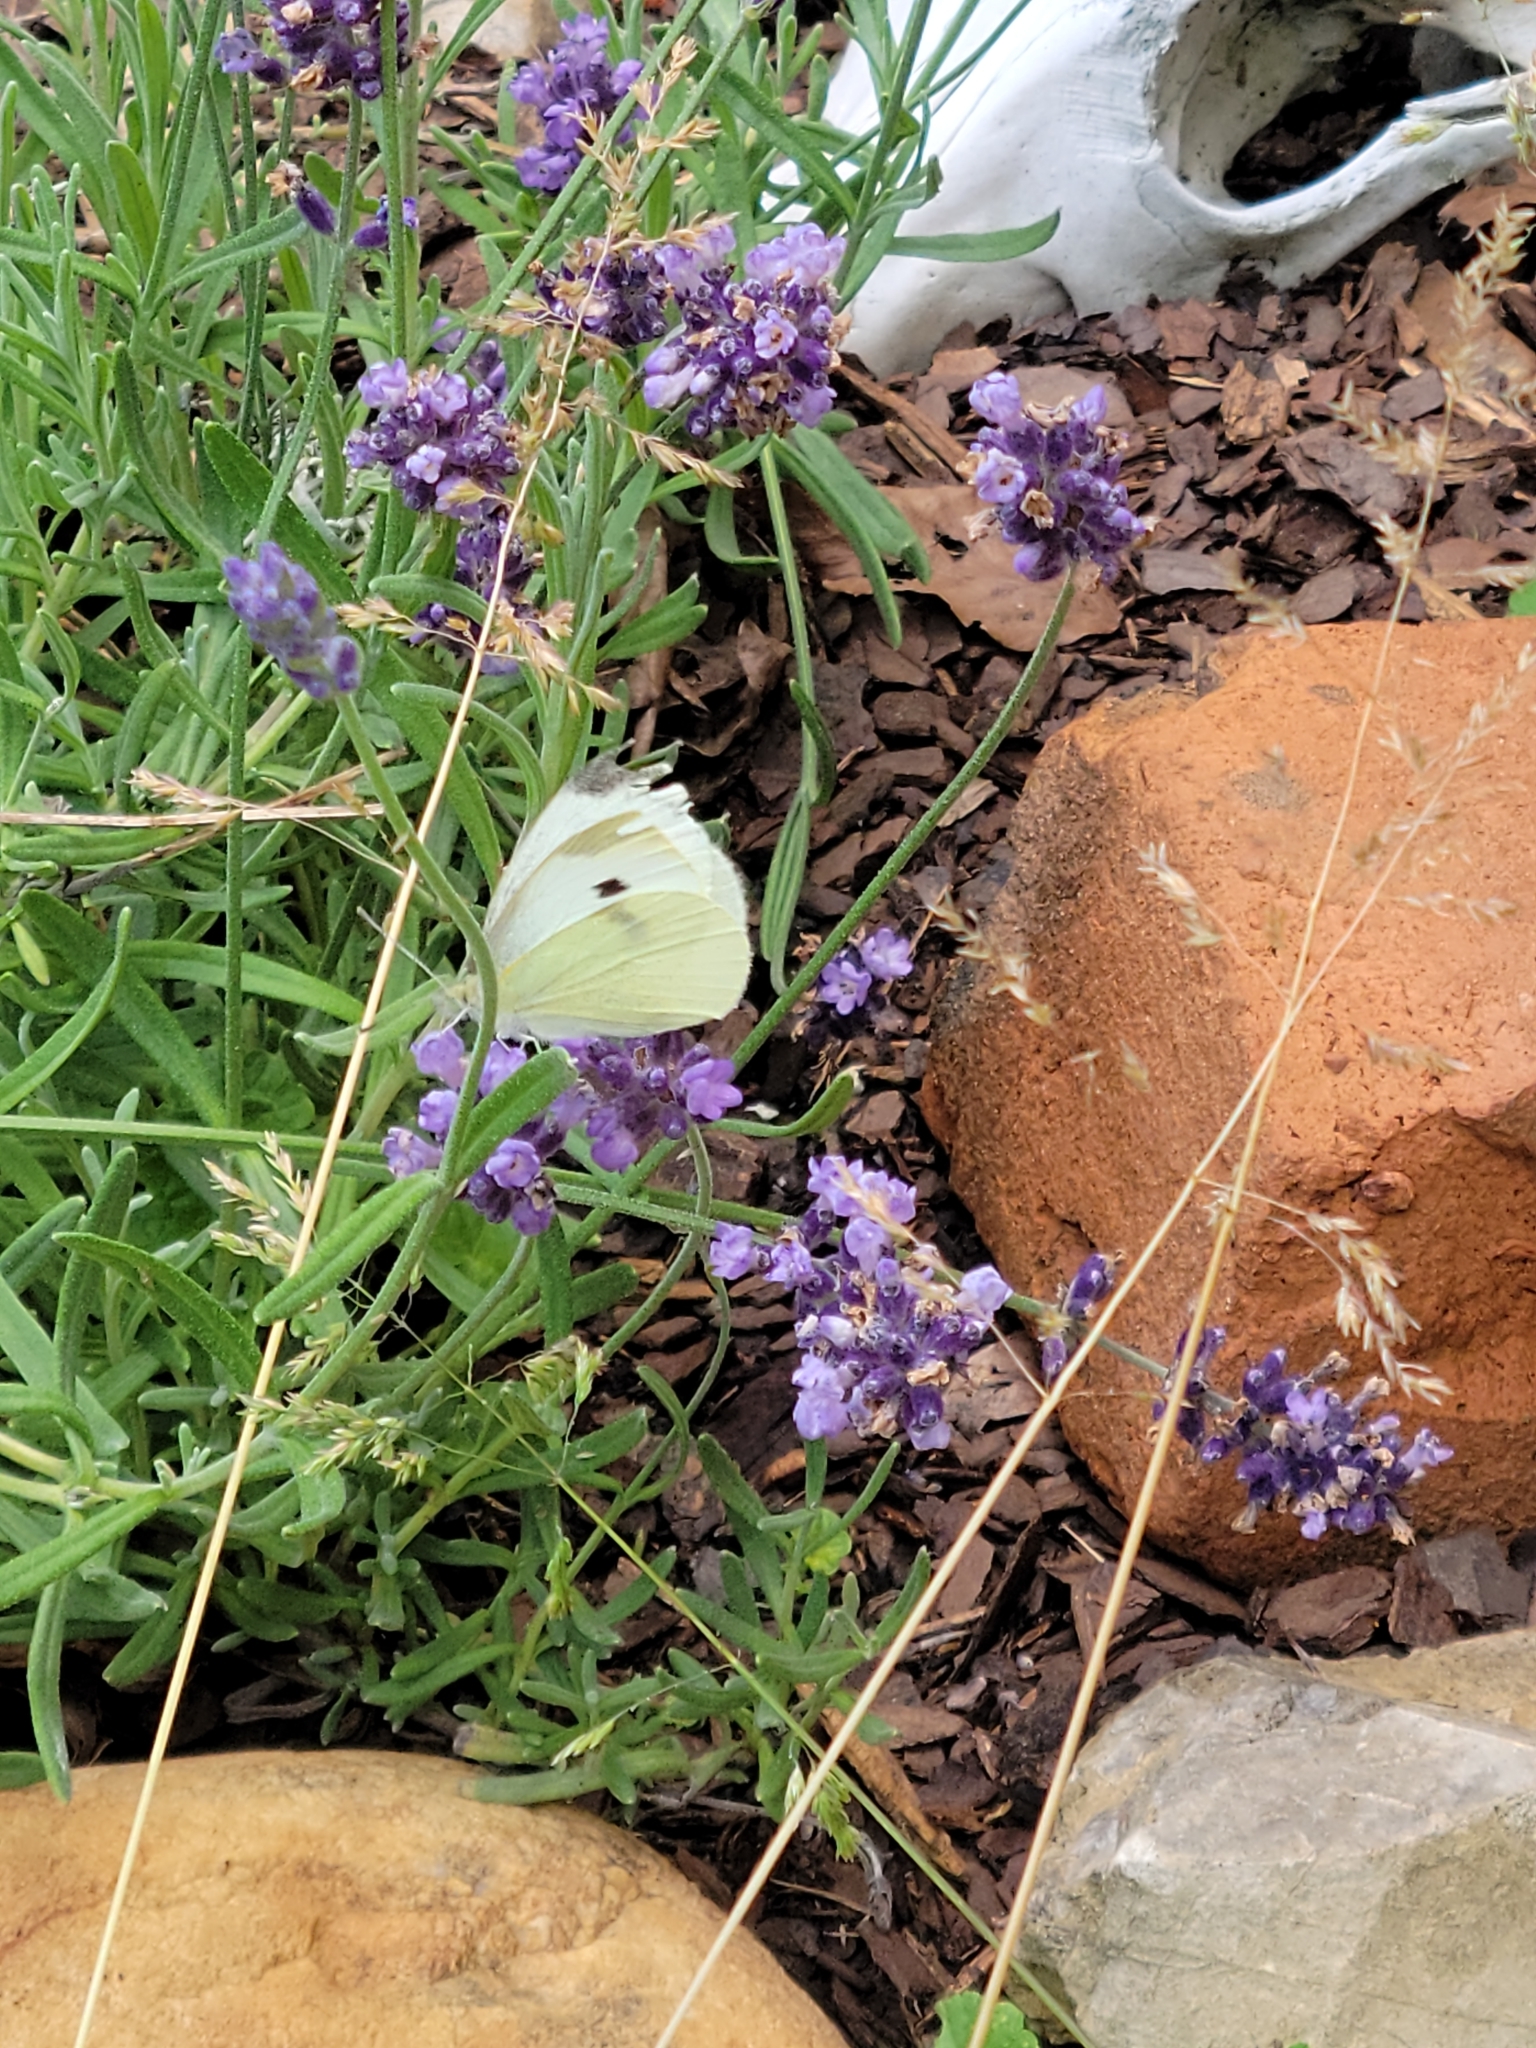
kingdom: Animalia
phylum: Arthropoda
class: Insecta
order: Lepidoptera
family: Pieridae
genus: Pieris
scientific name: Pieris rapae
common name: Small white
